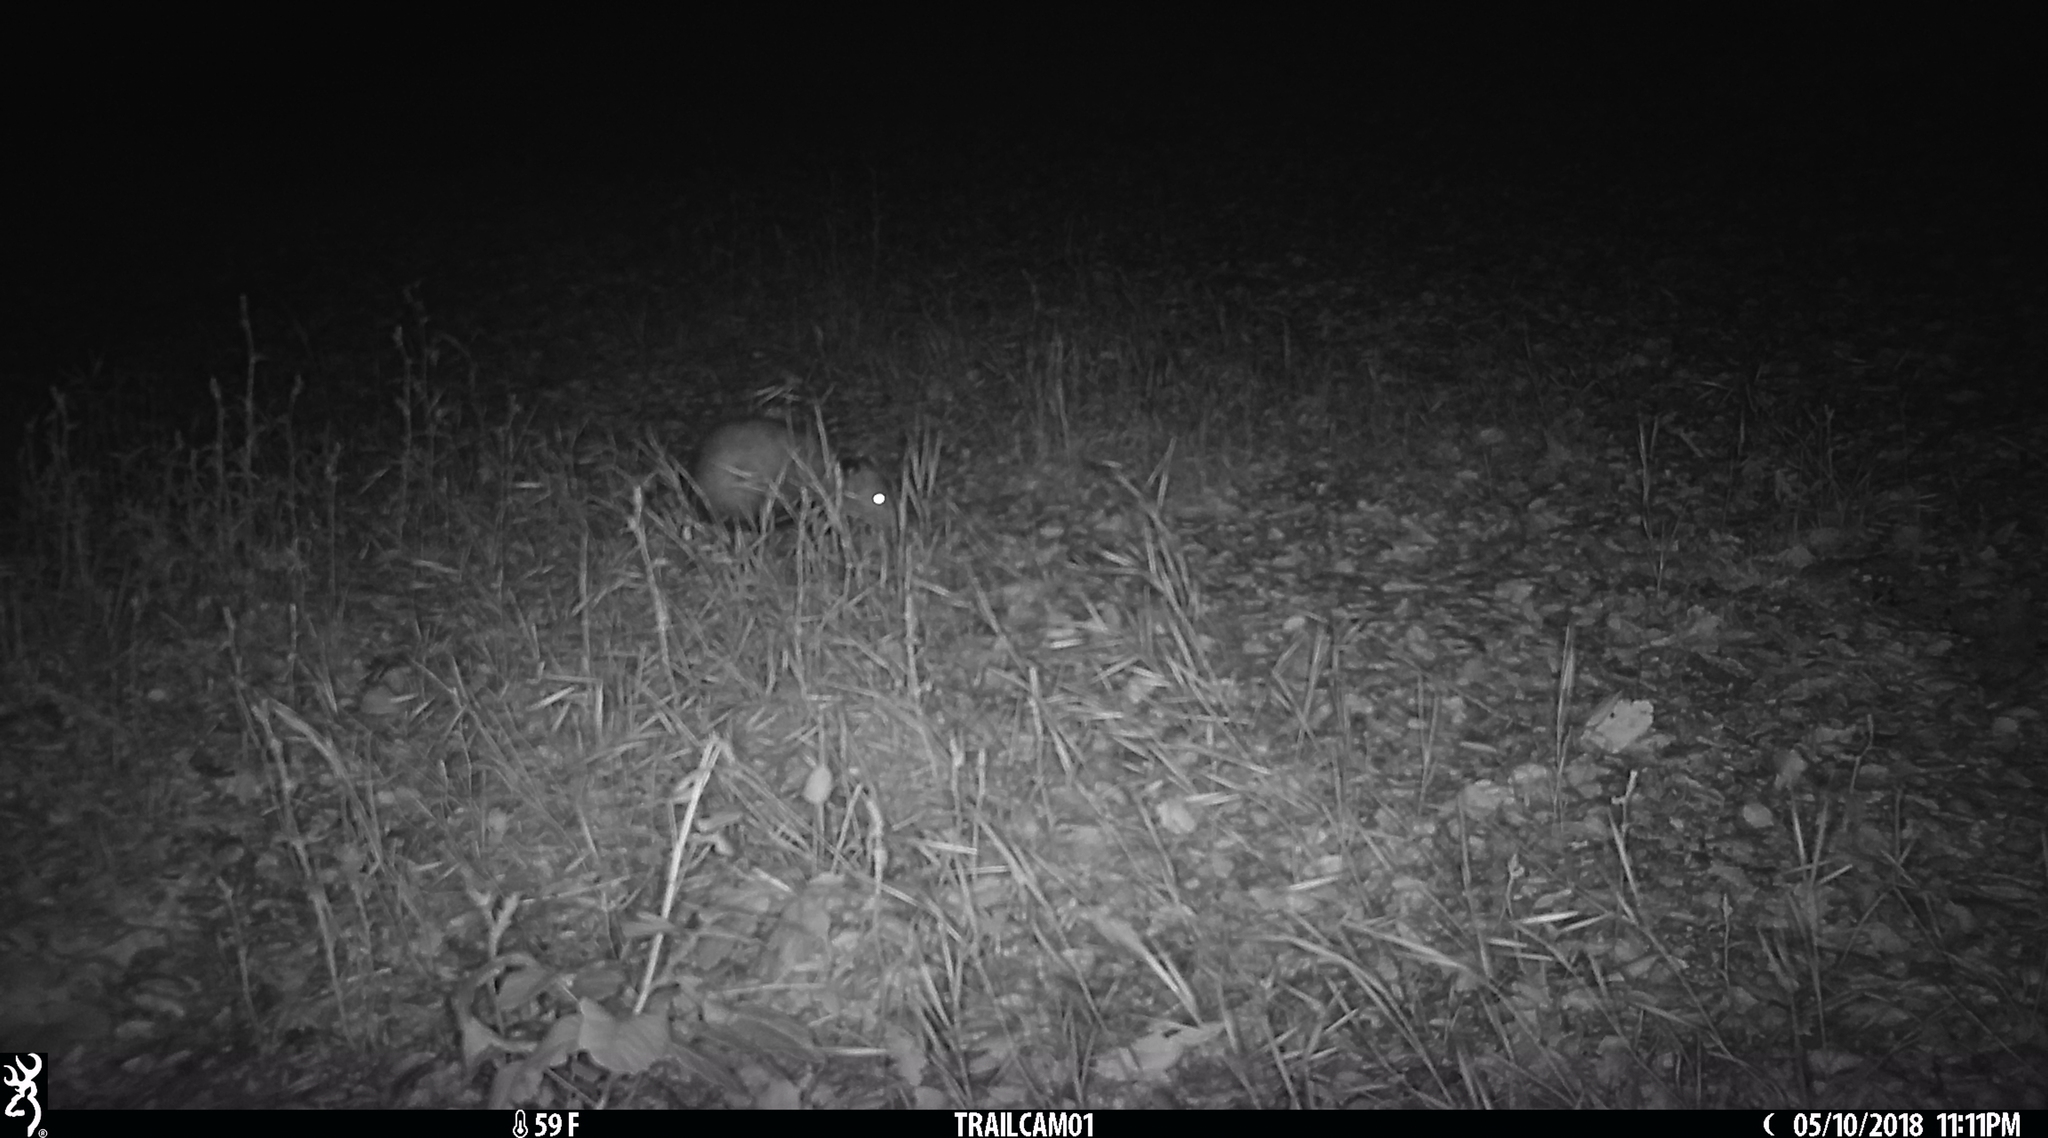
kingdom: Animalia
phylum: Chordata
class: Mammalia
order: Didelphimorphia
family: Didelphidae
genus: Didelphis
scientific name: Didelphis virginiana
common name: Virginia opossum
